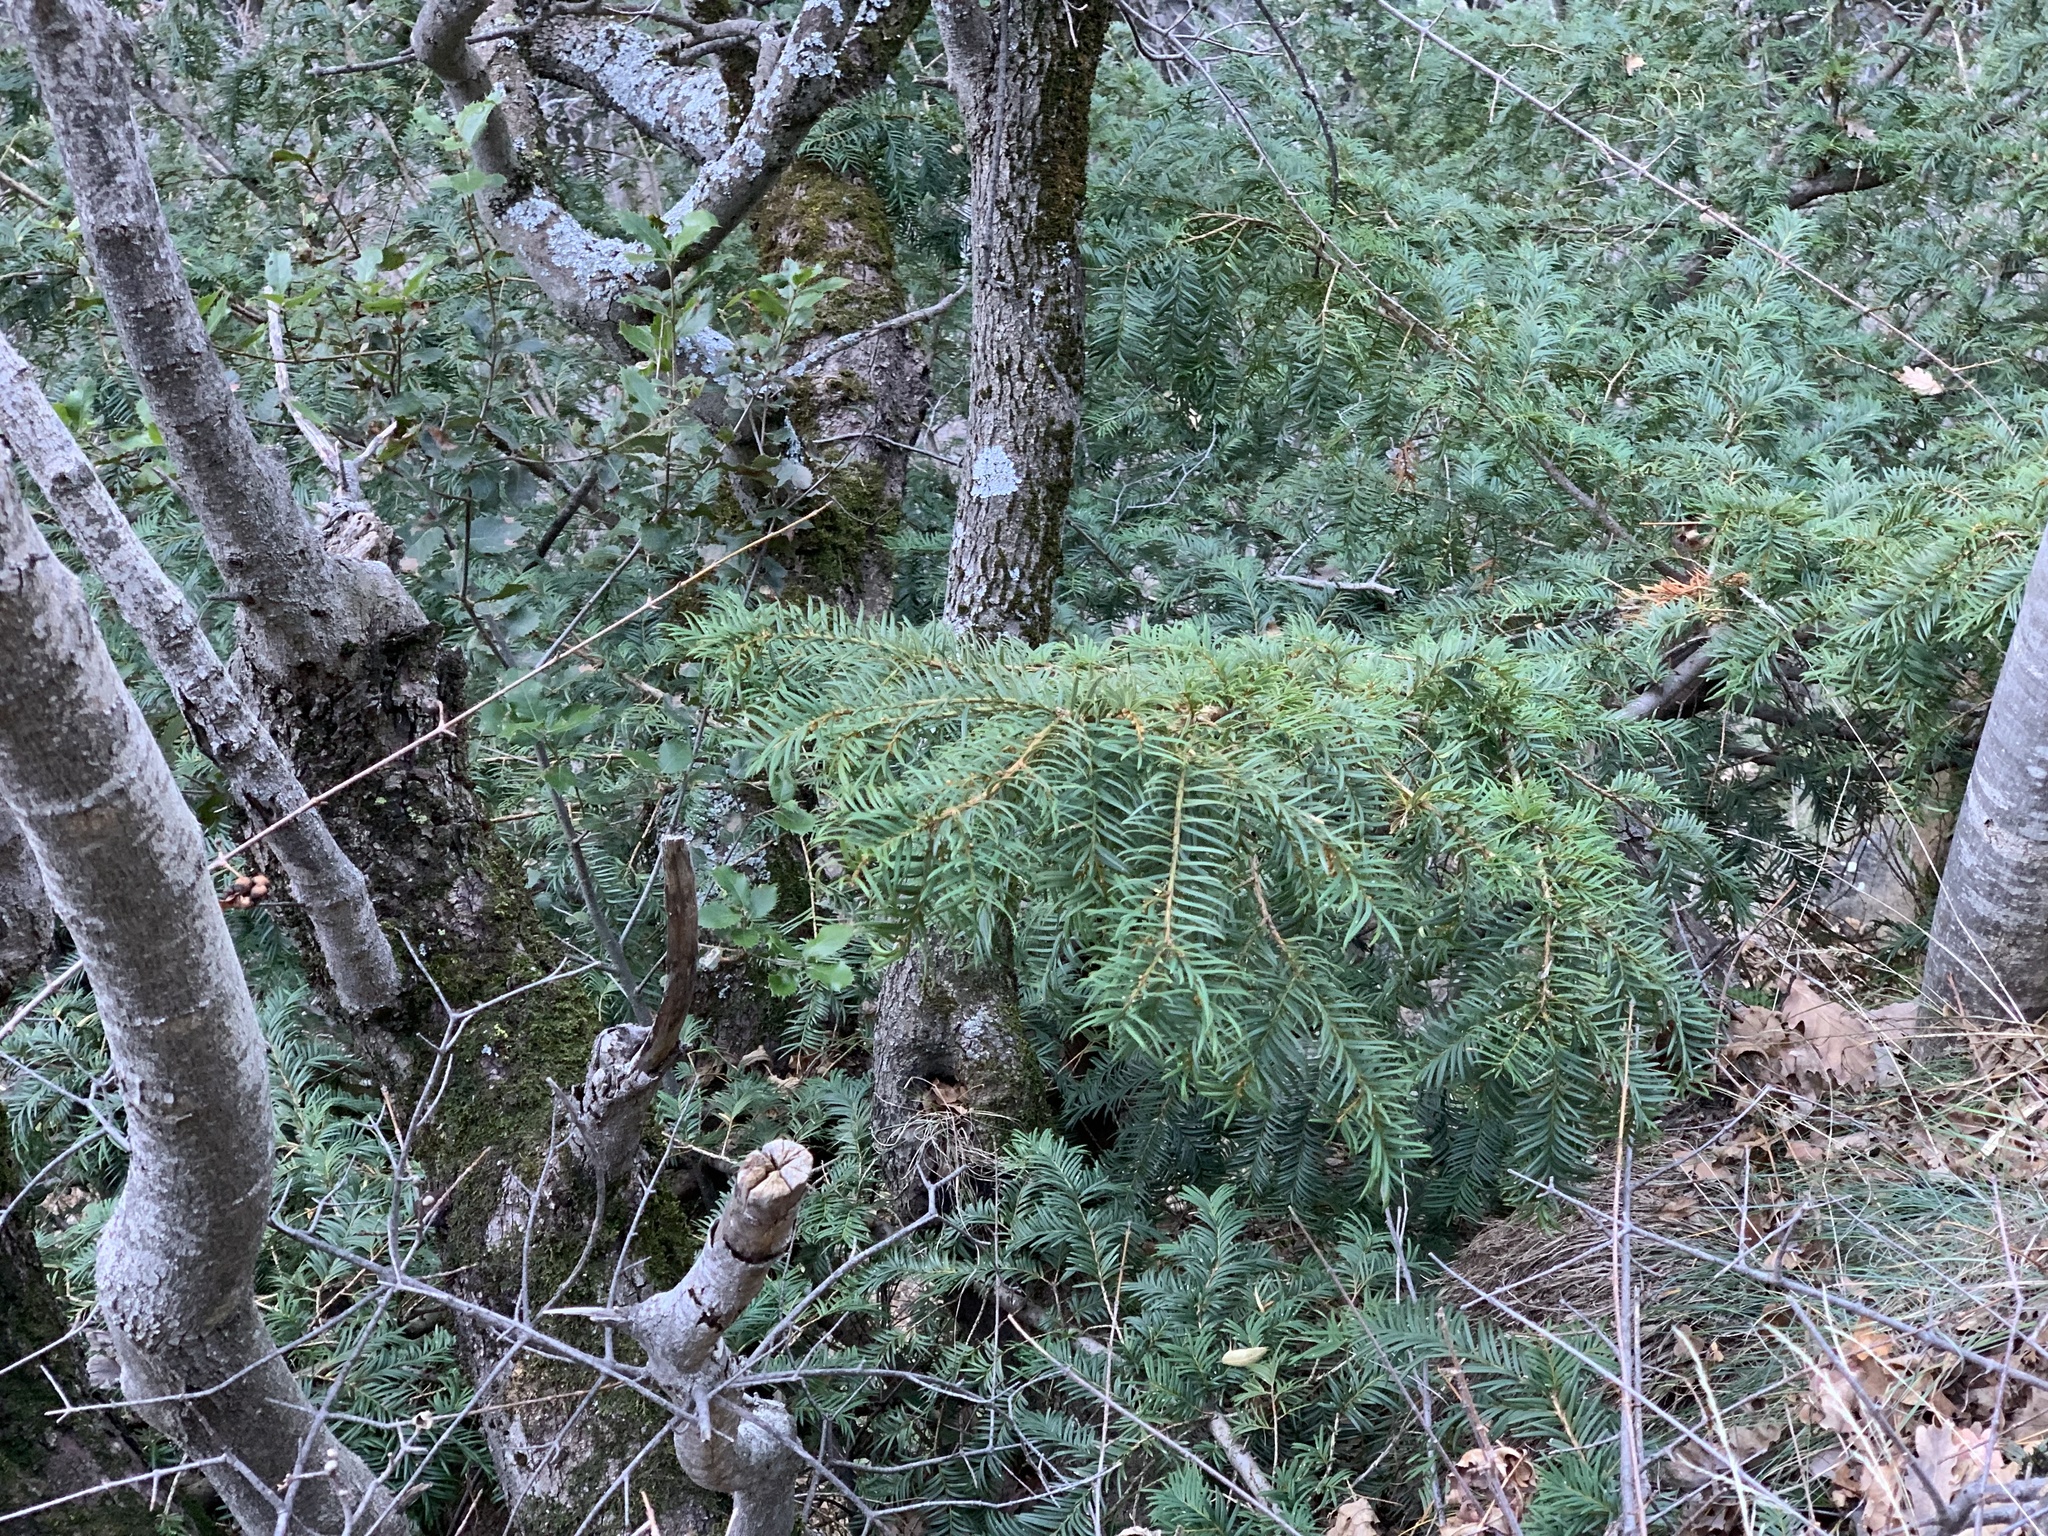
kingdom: Plantae
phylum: Tracheophyta
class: Pinopsida
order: Pinales
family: Taxaceae
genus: Taxus
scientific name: Taxus baccata
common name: Yew
